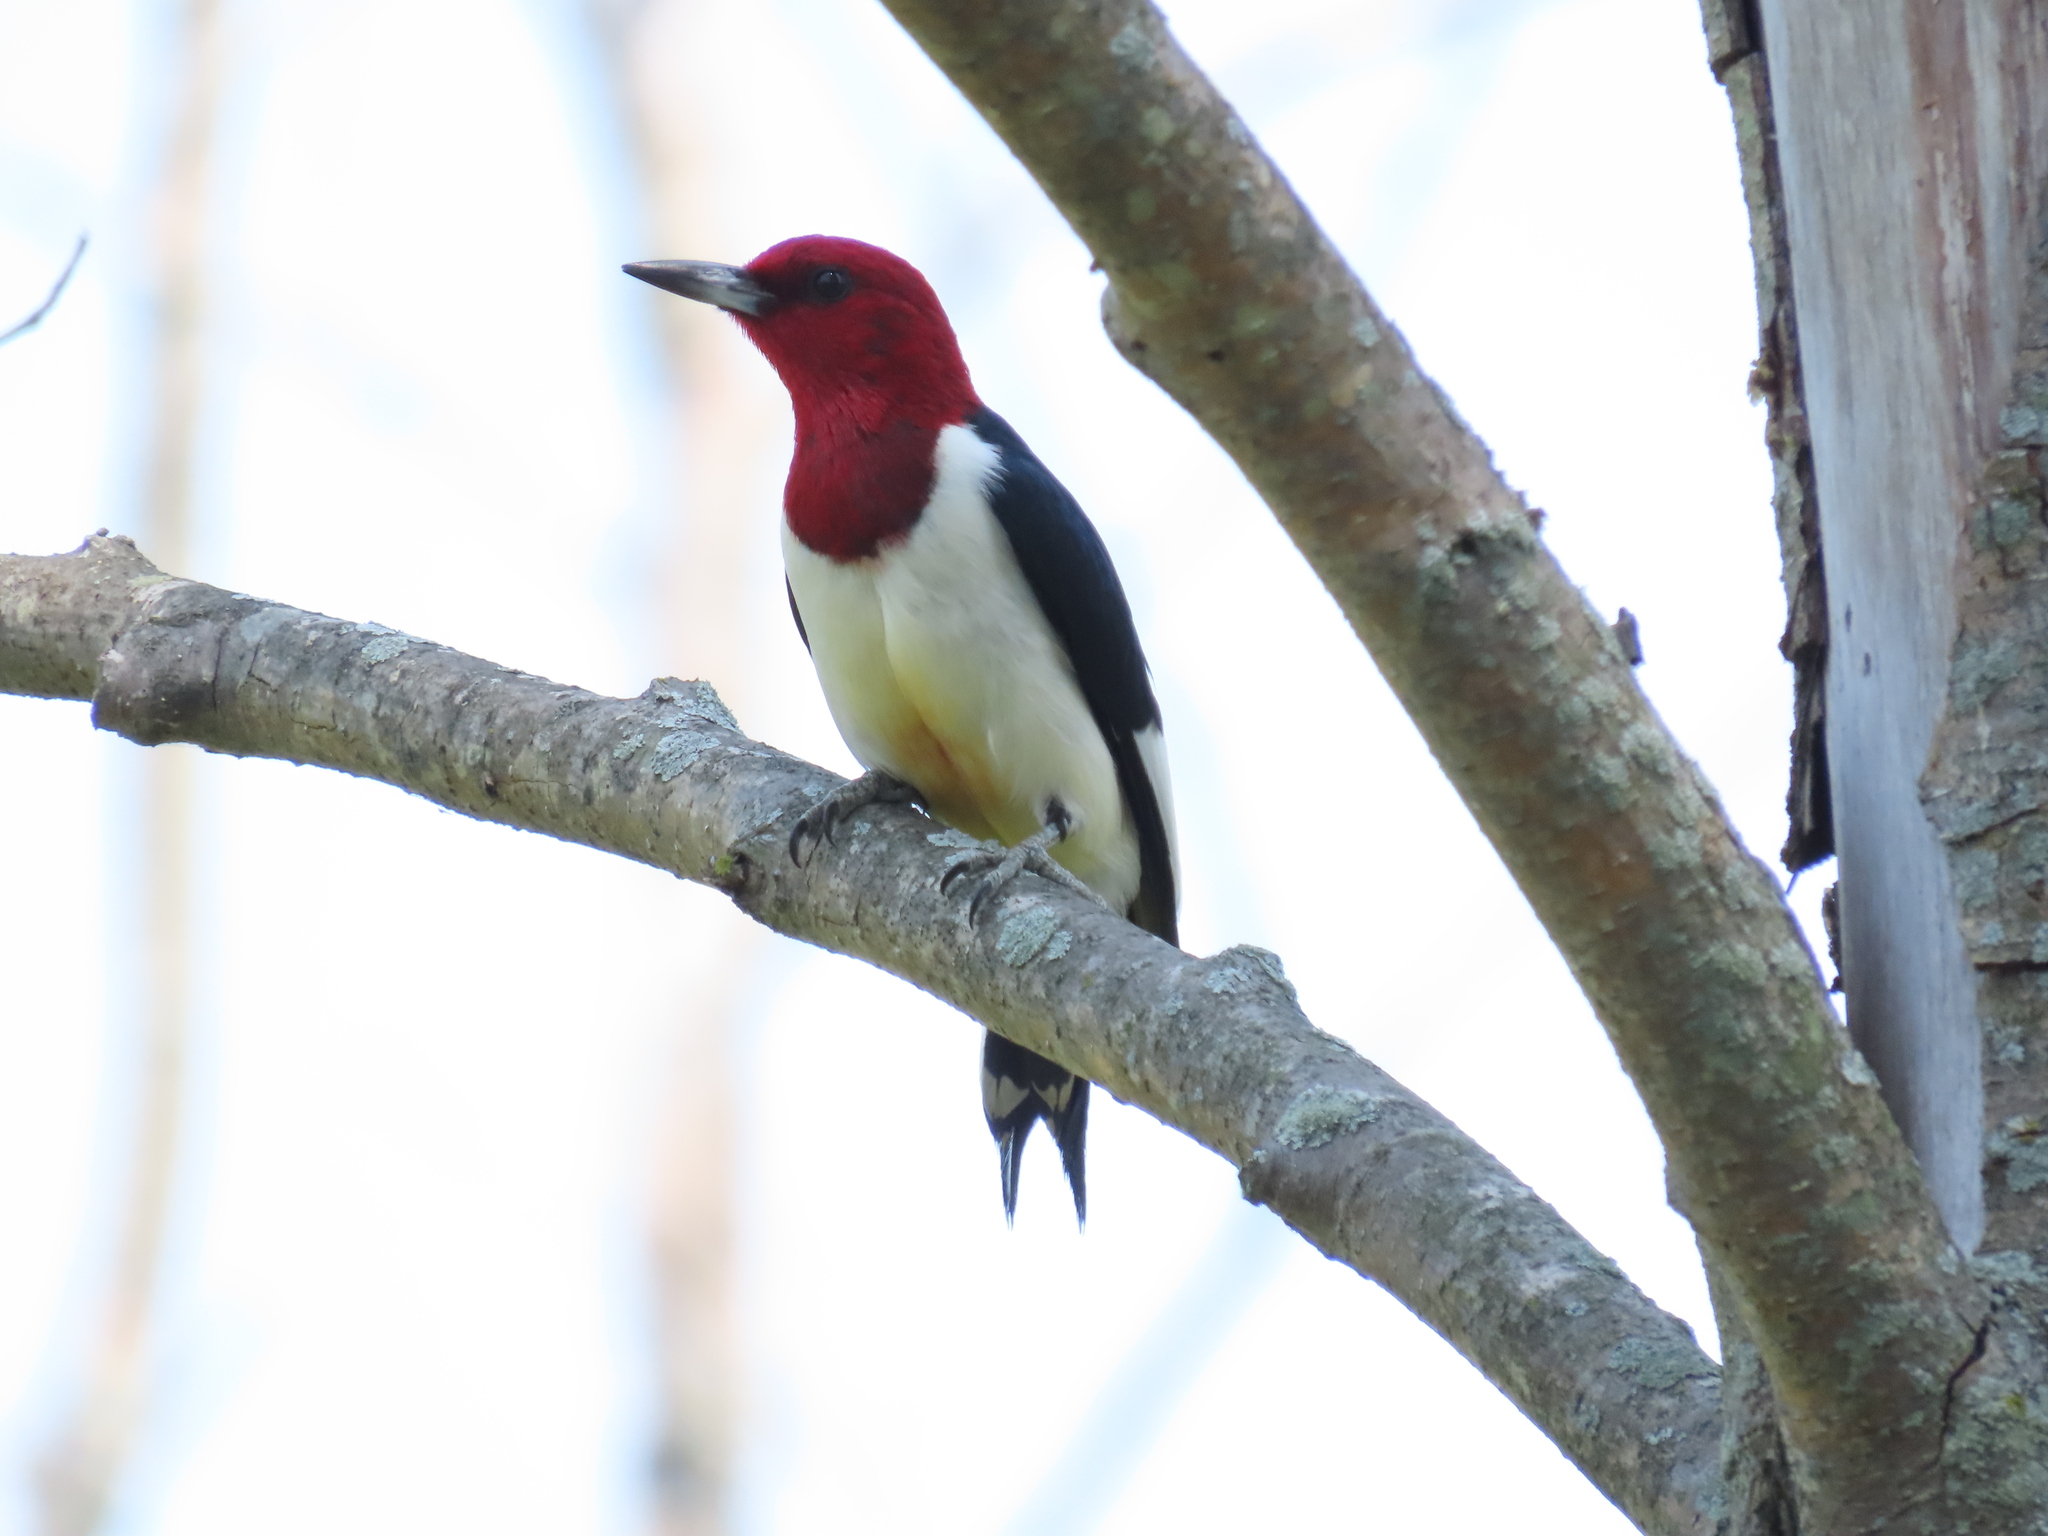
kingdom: Animalia
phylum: Chordata
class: Aves
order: Piciformes
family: Picidae
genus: Melanerpes
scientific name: Melanerpes erythrocephalus
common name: Red-headed woodpecker
